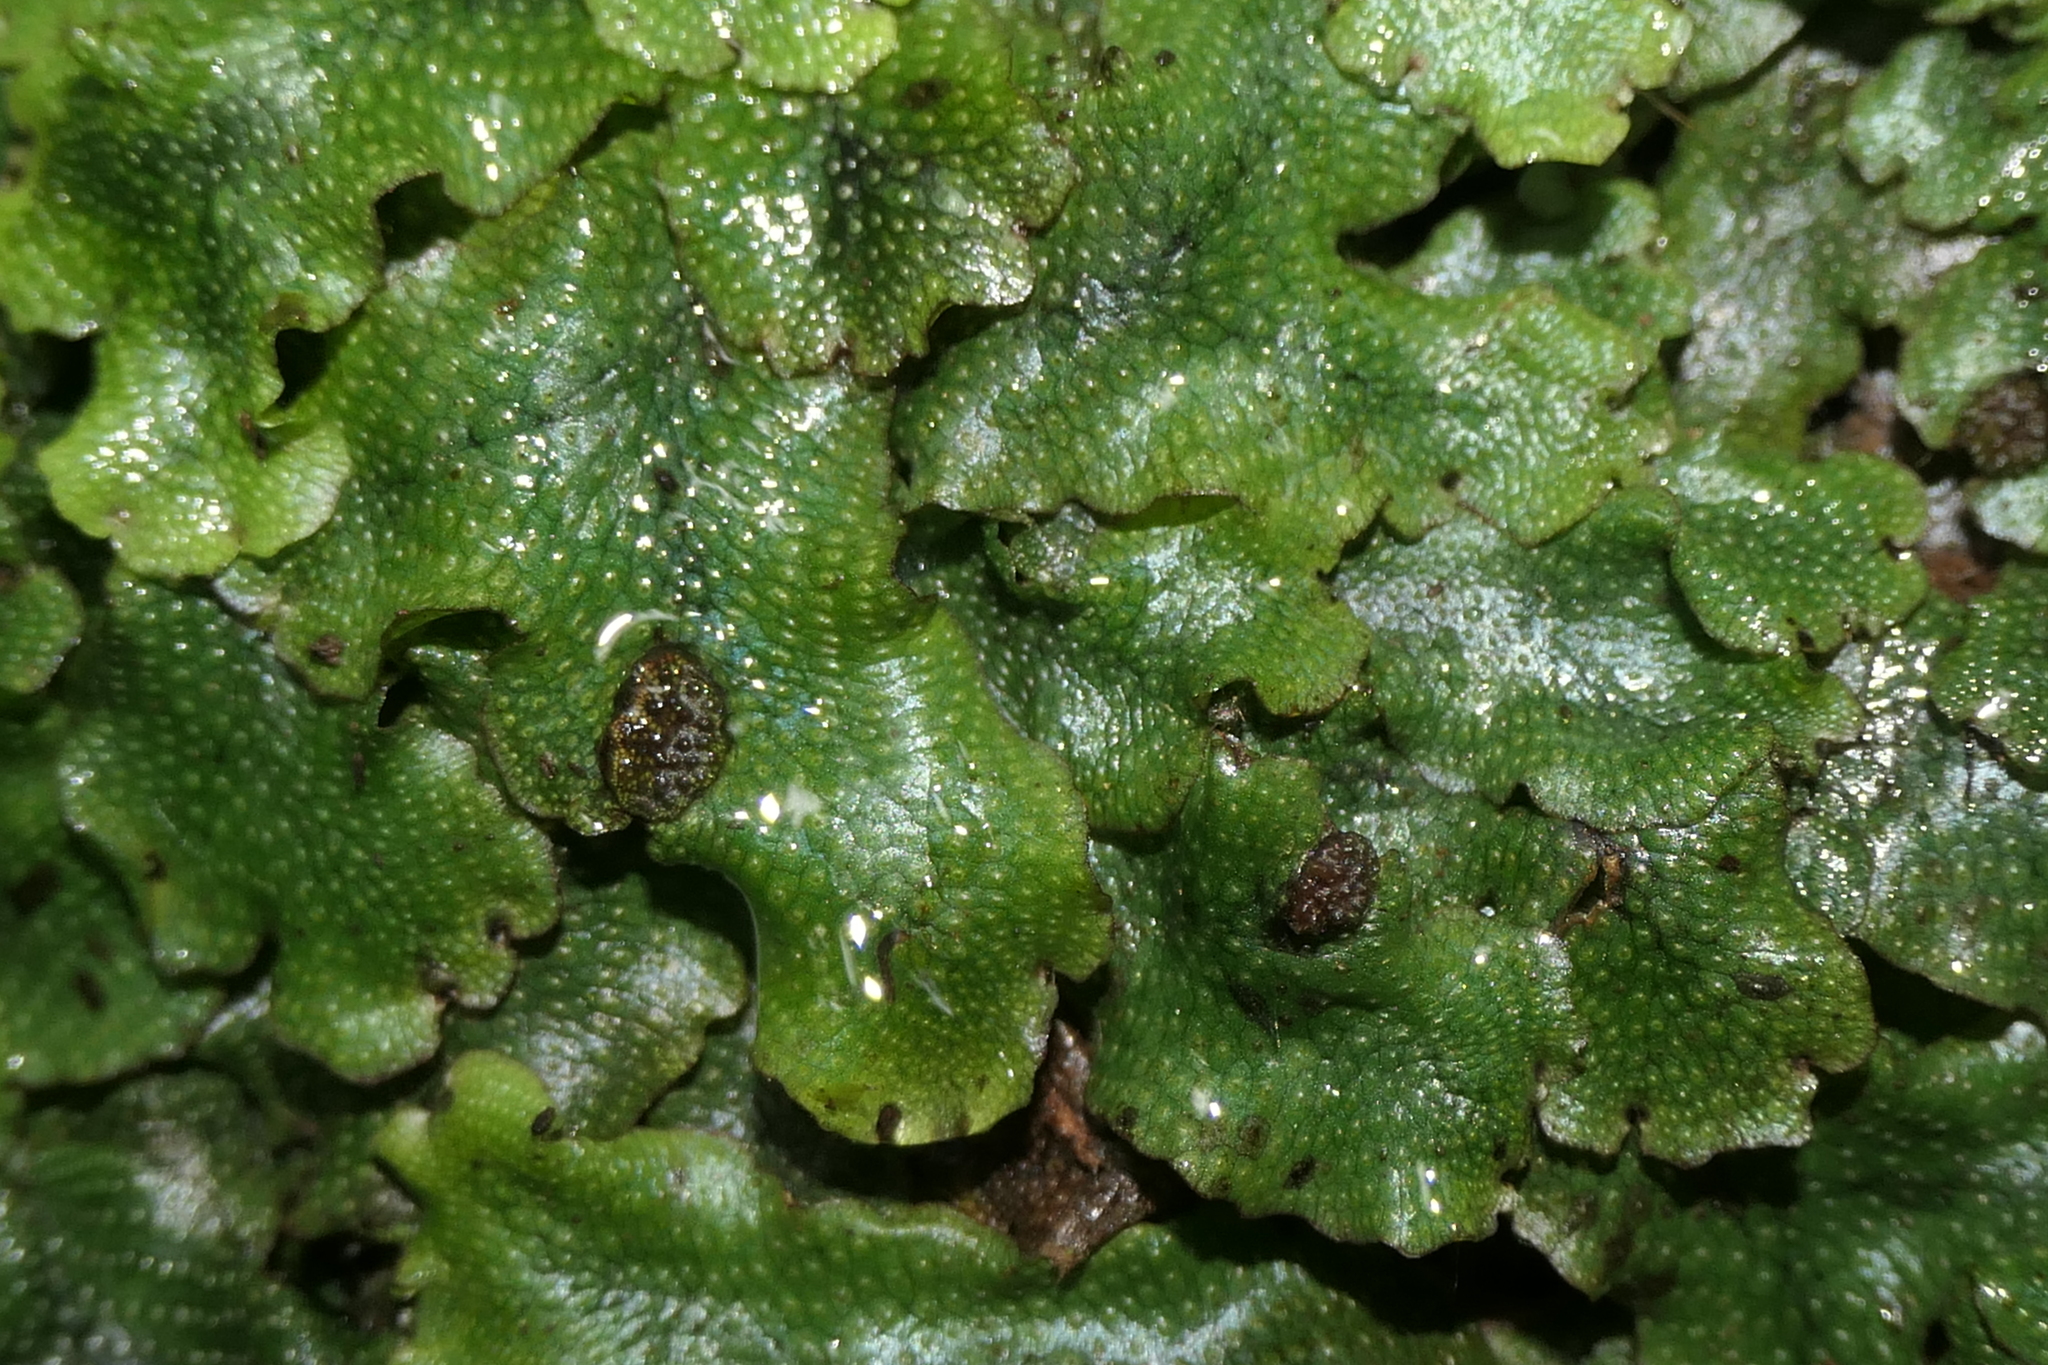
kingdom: Plantae
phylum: Marchantiophyta
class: Marchantiopsida
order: Marchantiales
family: Conocephalaceae
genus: Conocephalum
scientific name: Conocephalum conicum
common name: Great scented liverwort
